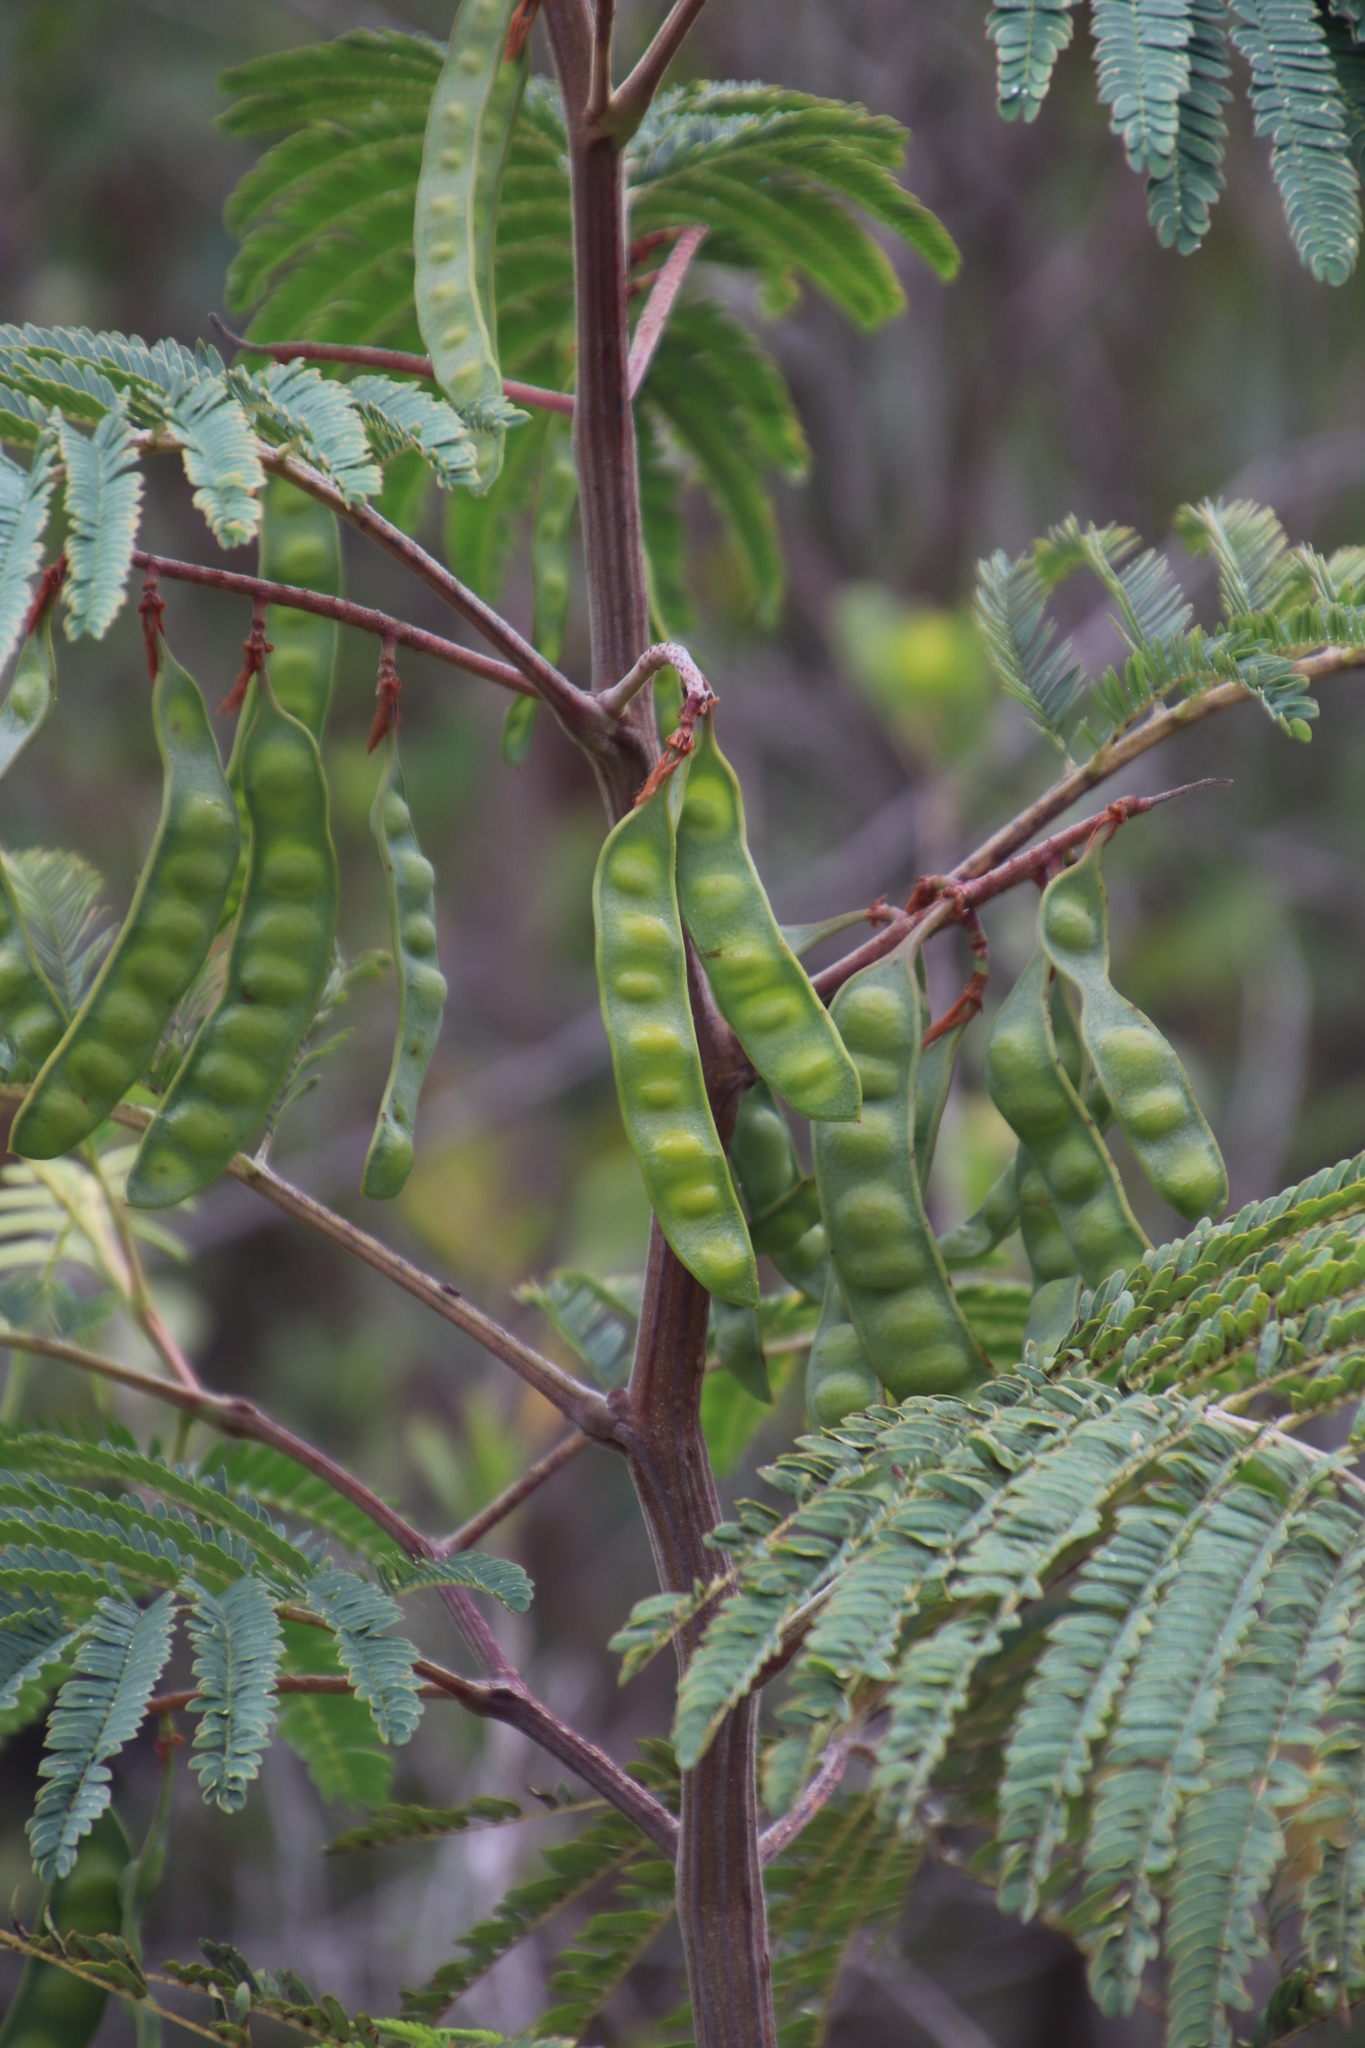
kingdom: Plantae
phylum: Tracheophyta
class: Magnoliopsida
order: Fabales
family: Fabaceae
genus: Paraserianthes
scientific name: Paraserianthes lophantha
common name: Plume albizia
